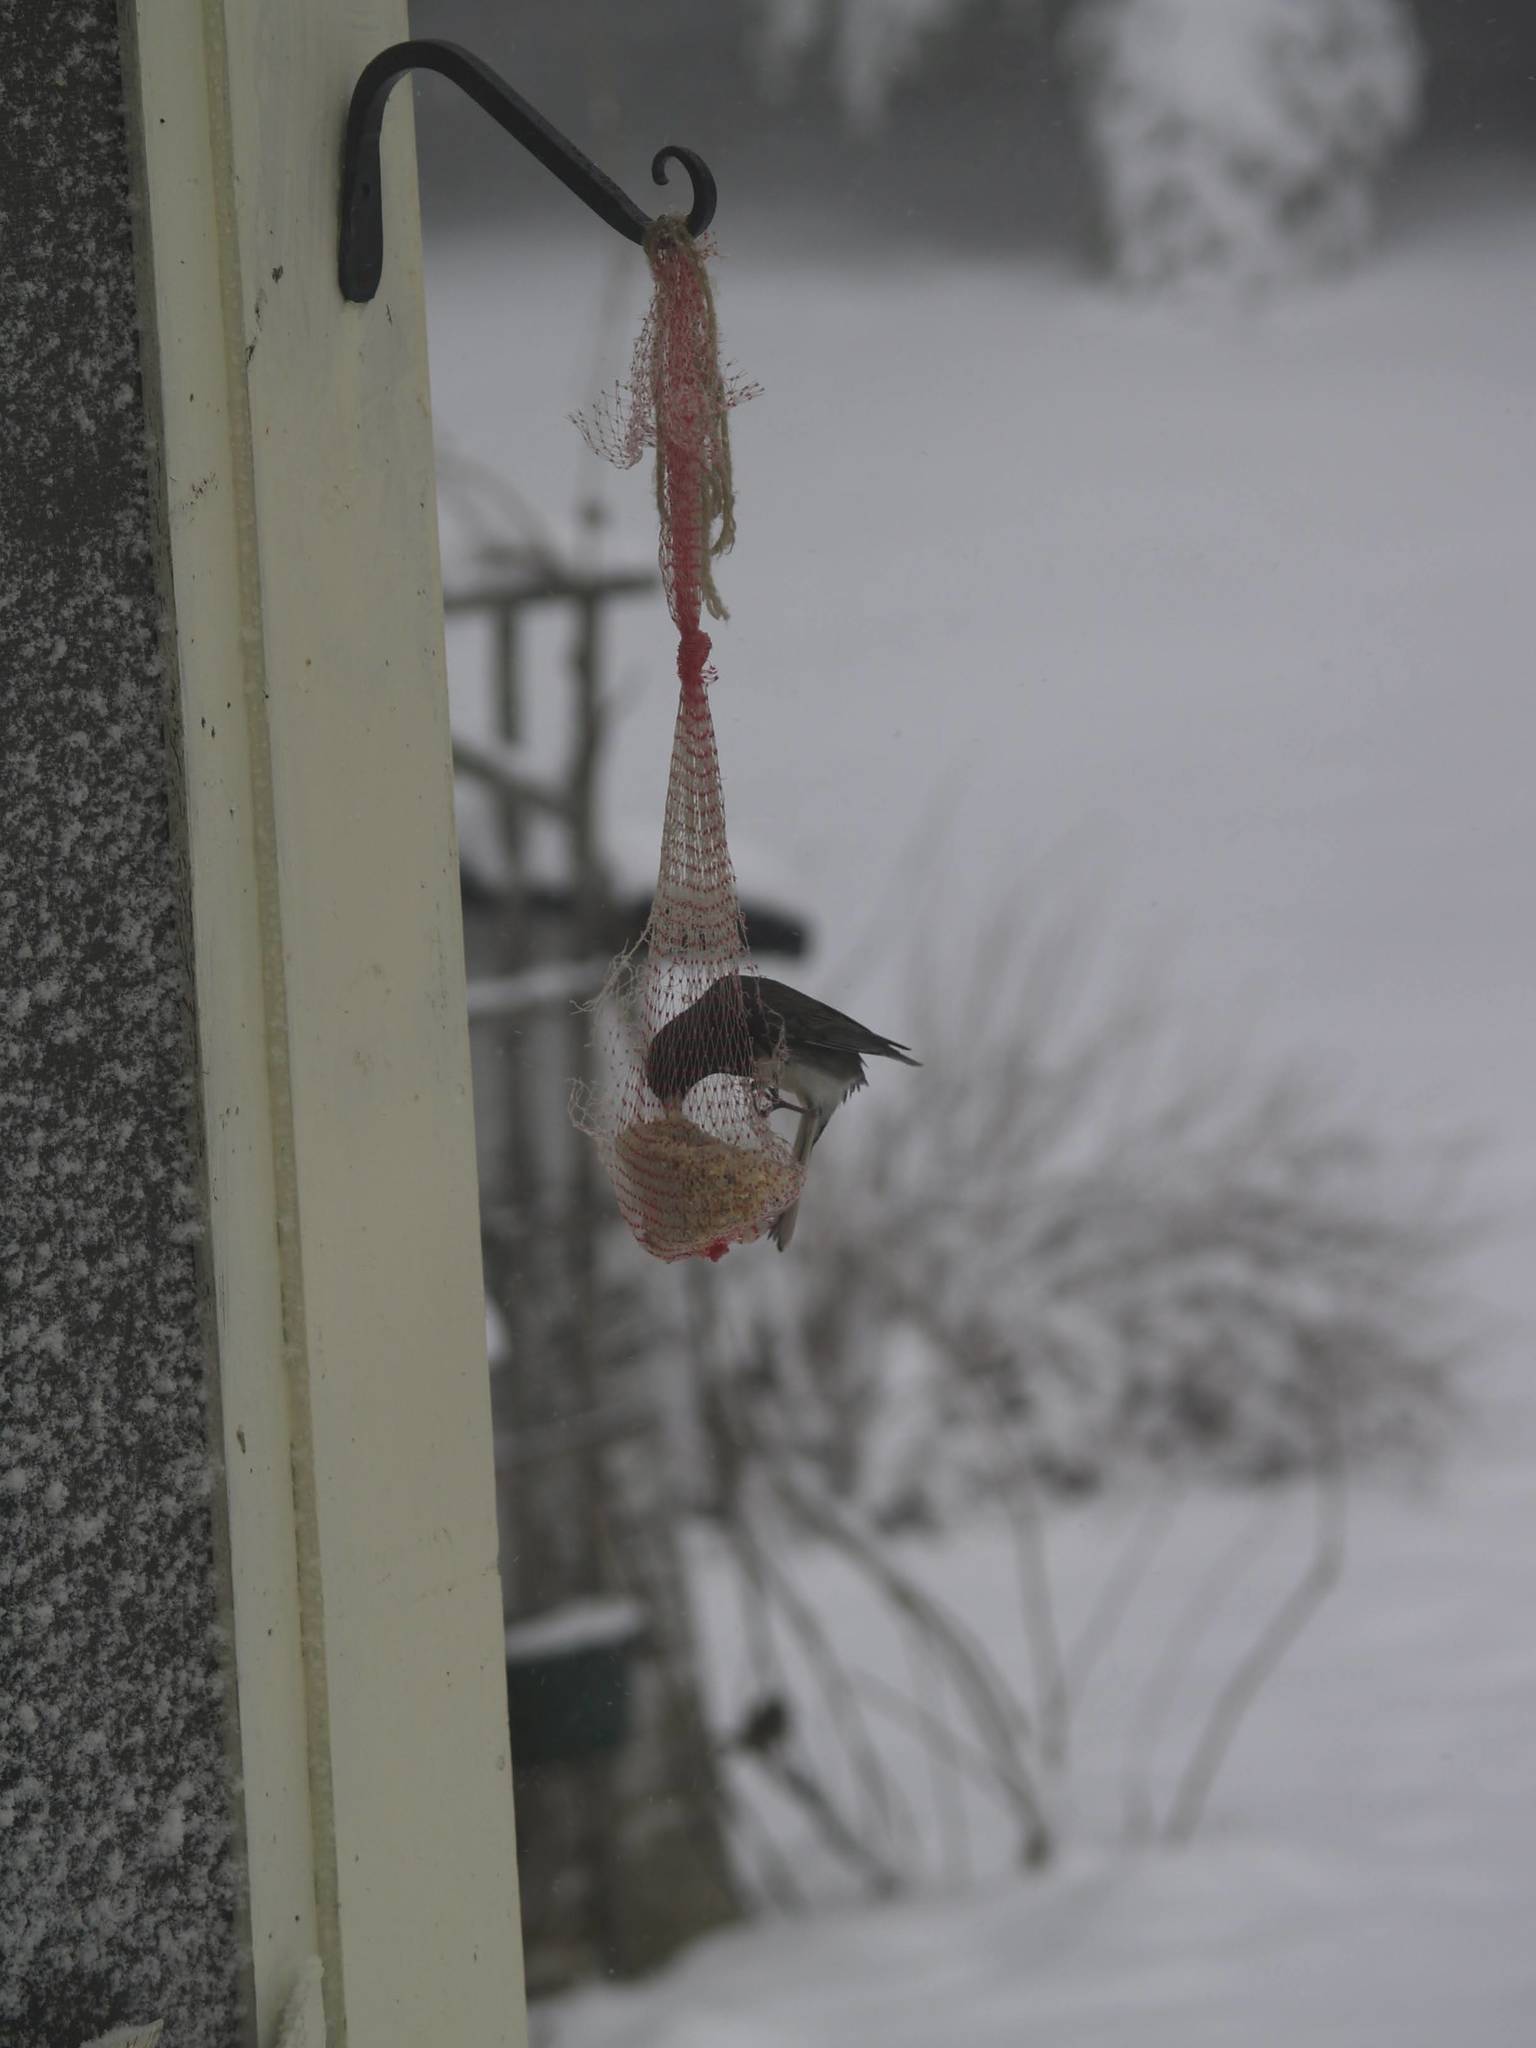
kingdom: Animalia
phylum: Chordata
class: Aves
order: Passeriformes
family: Passerellidae
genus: Junco
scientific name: Junco hyemalis
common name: Dark-eyed junco
